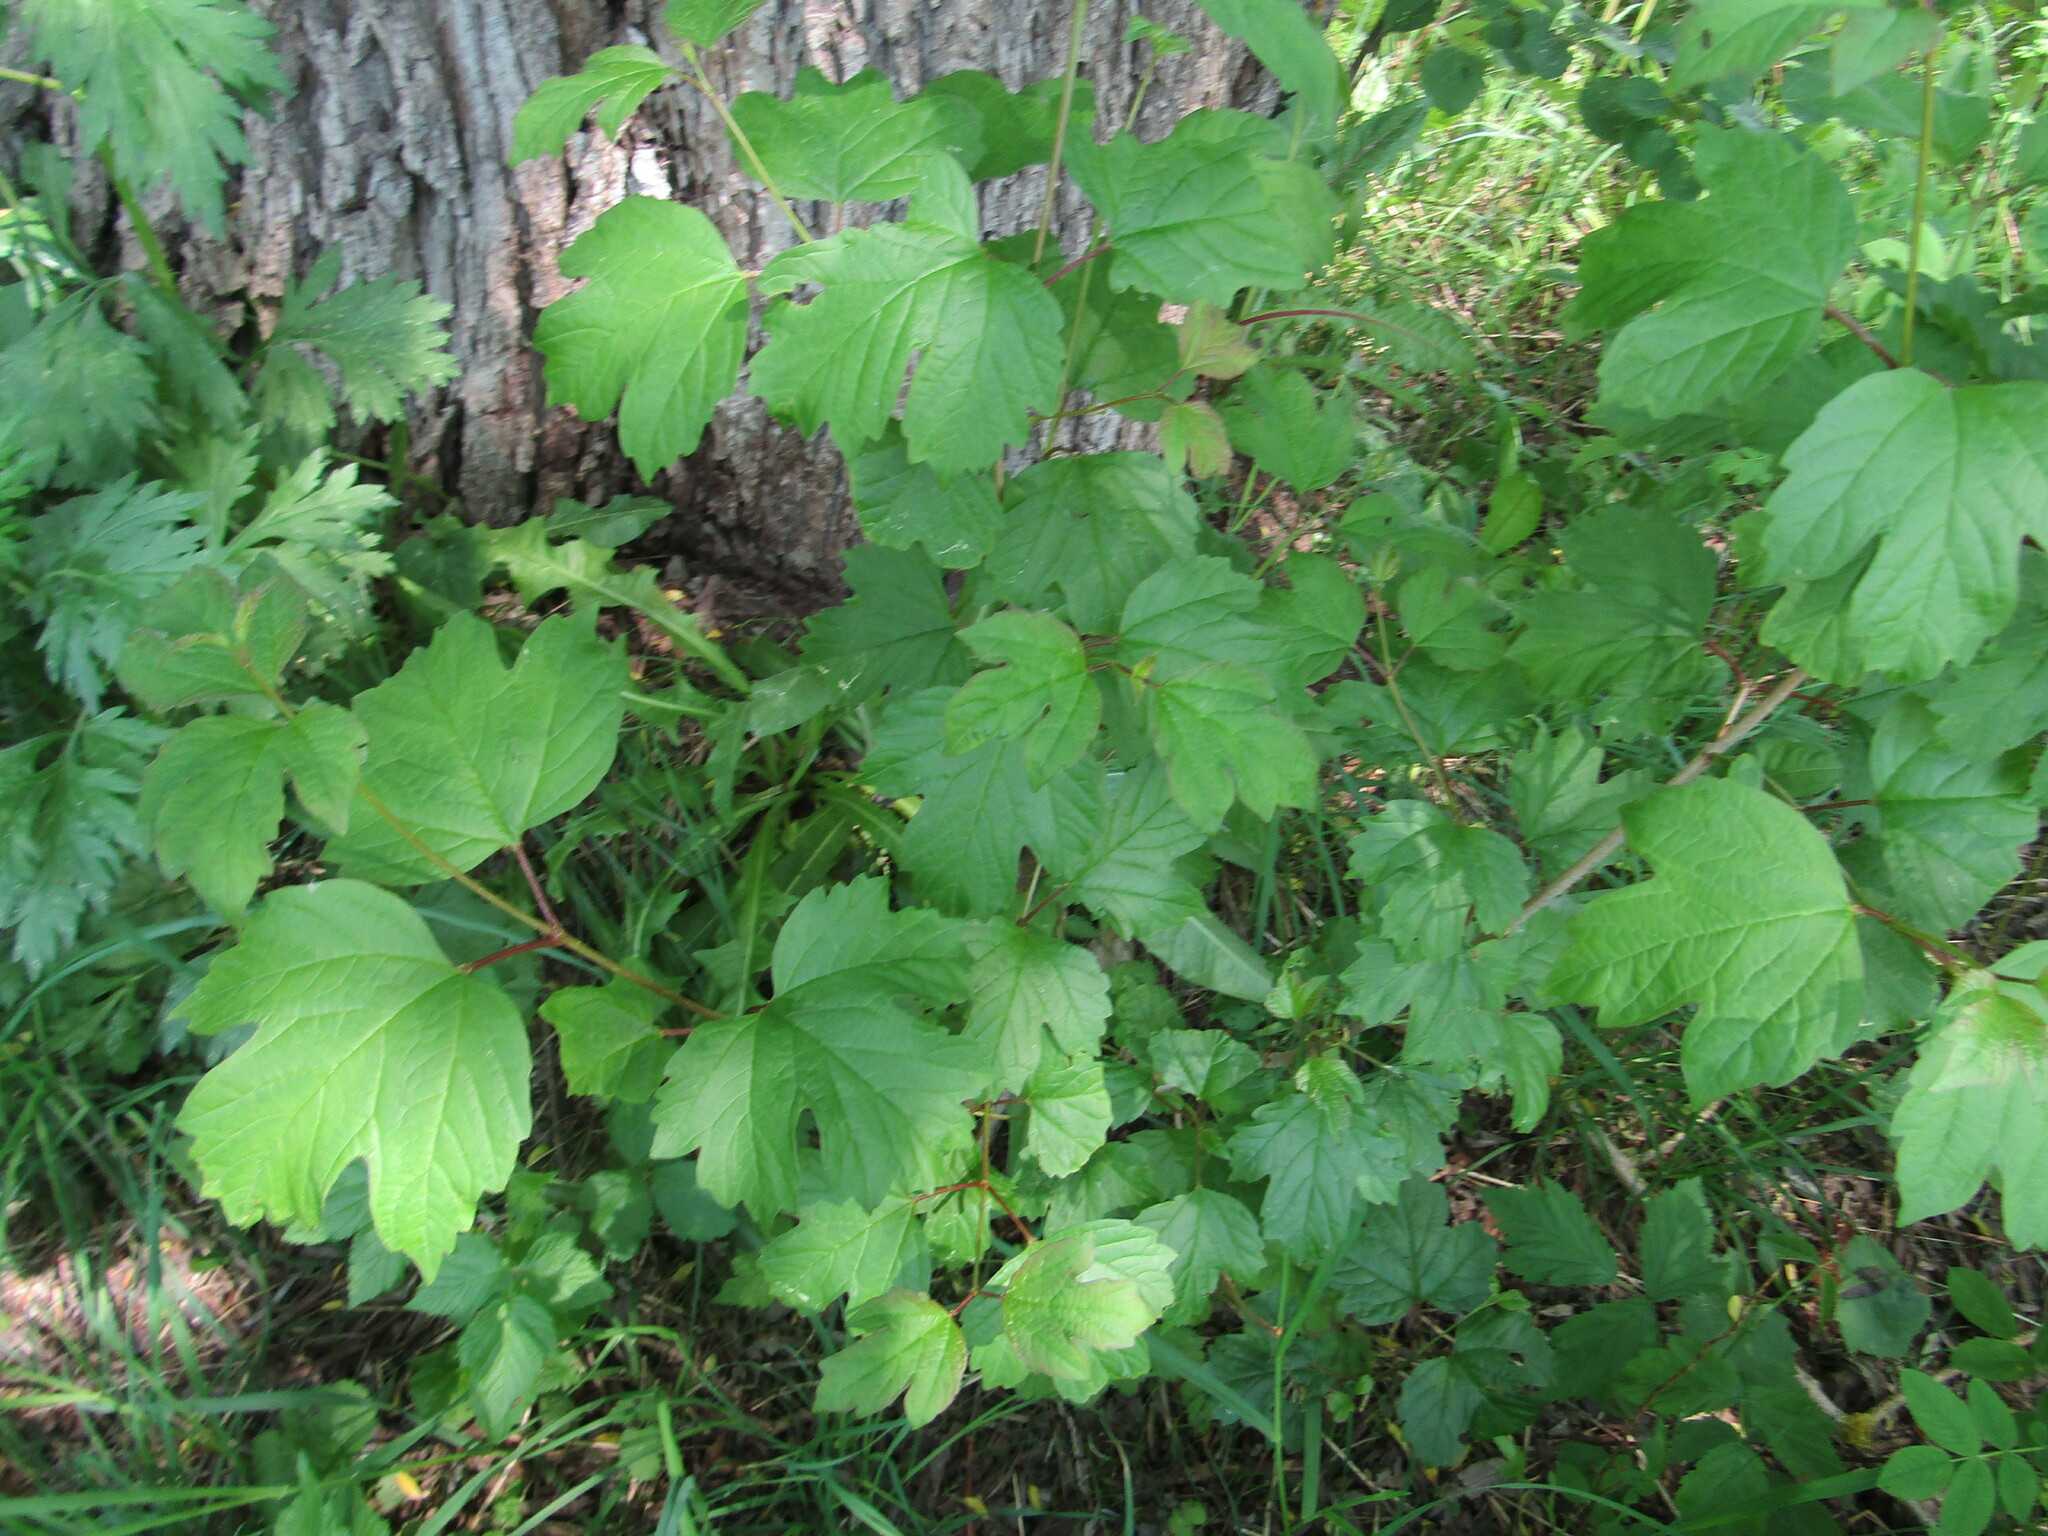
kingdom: Plantae
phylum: Tracheophyta
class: Magnoliopsida
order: Dipsacales
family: Viburnaceae
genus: Viburnum
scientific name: Viburnum opulus
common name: Guelder-rose
